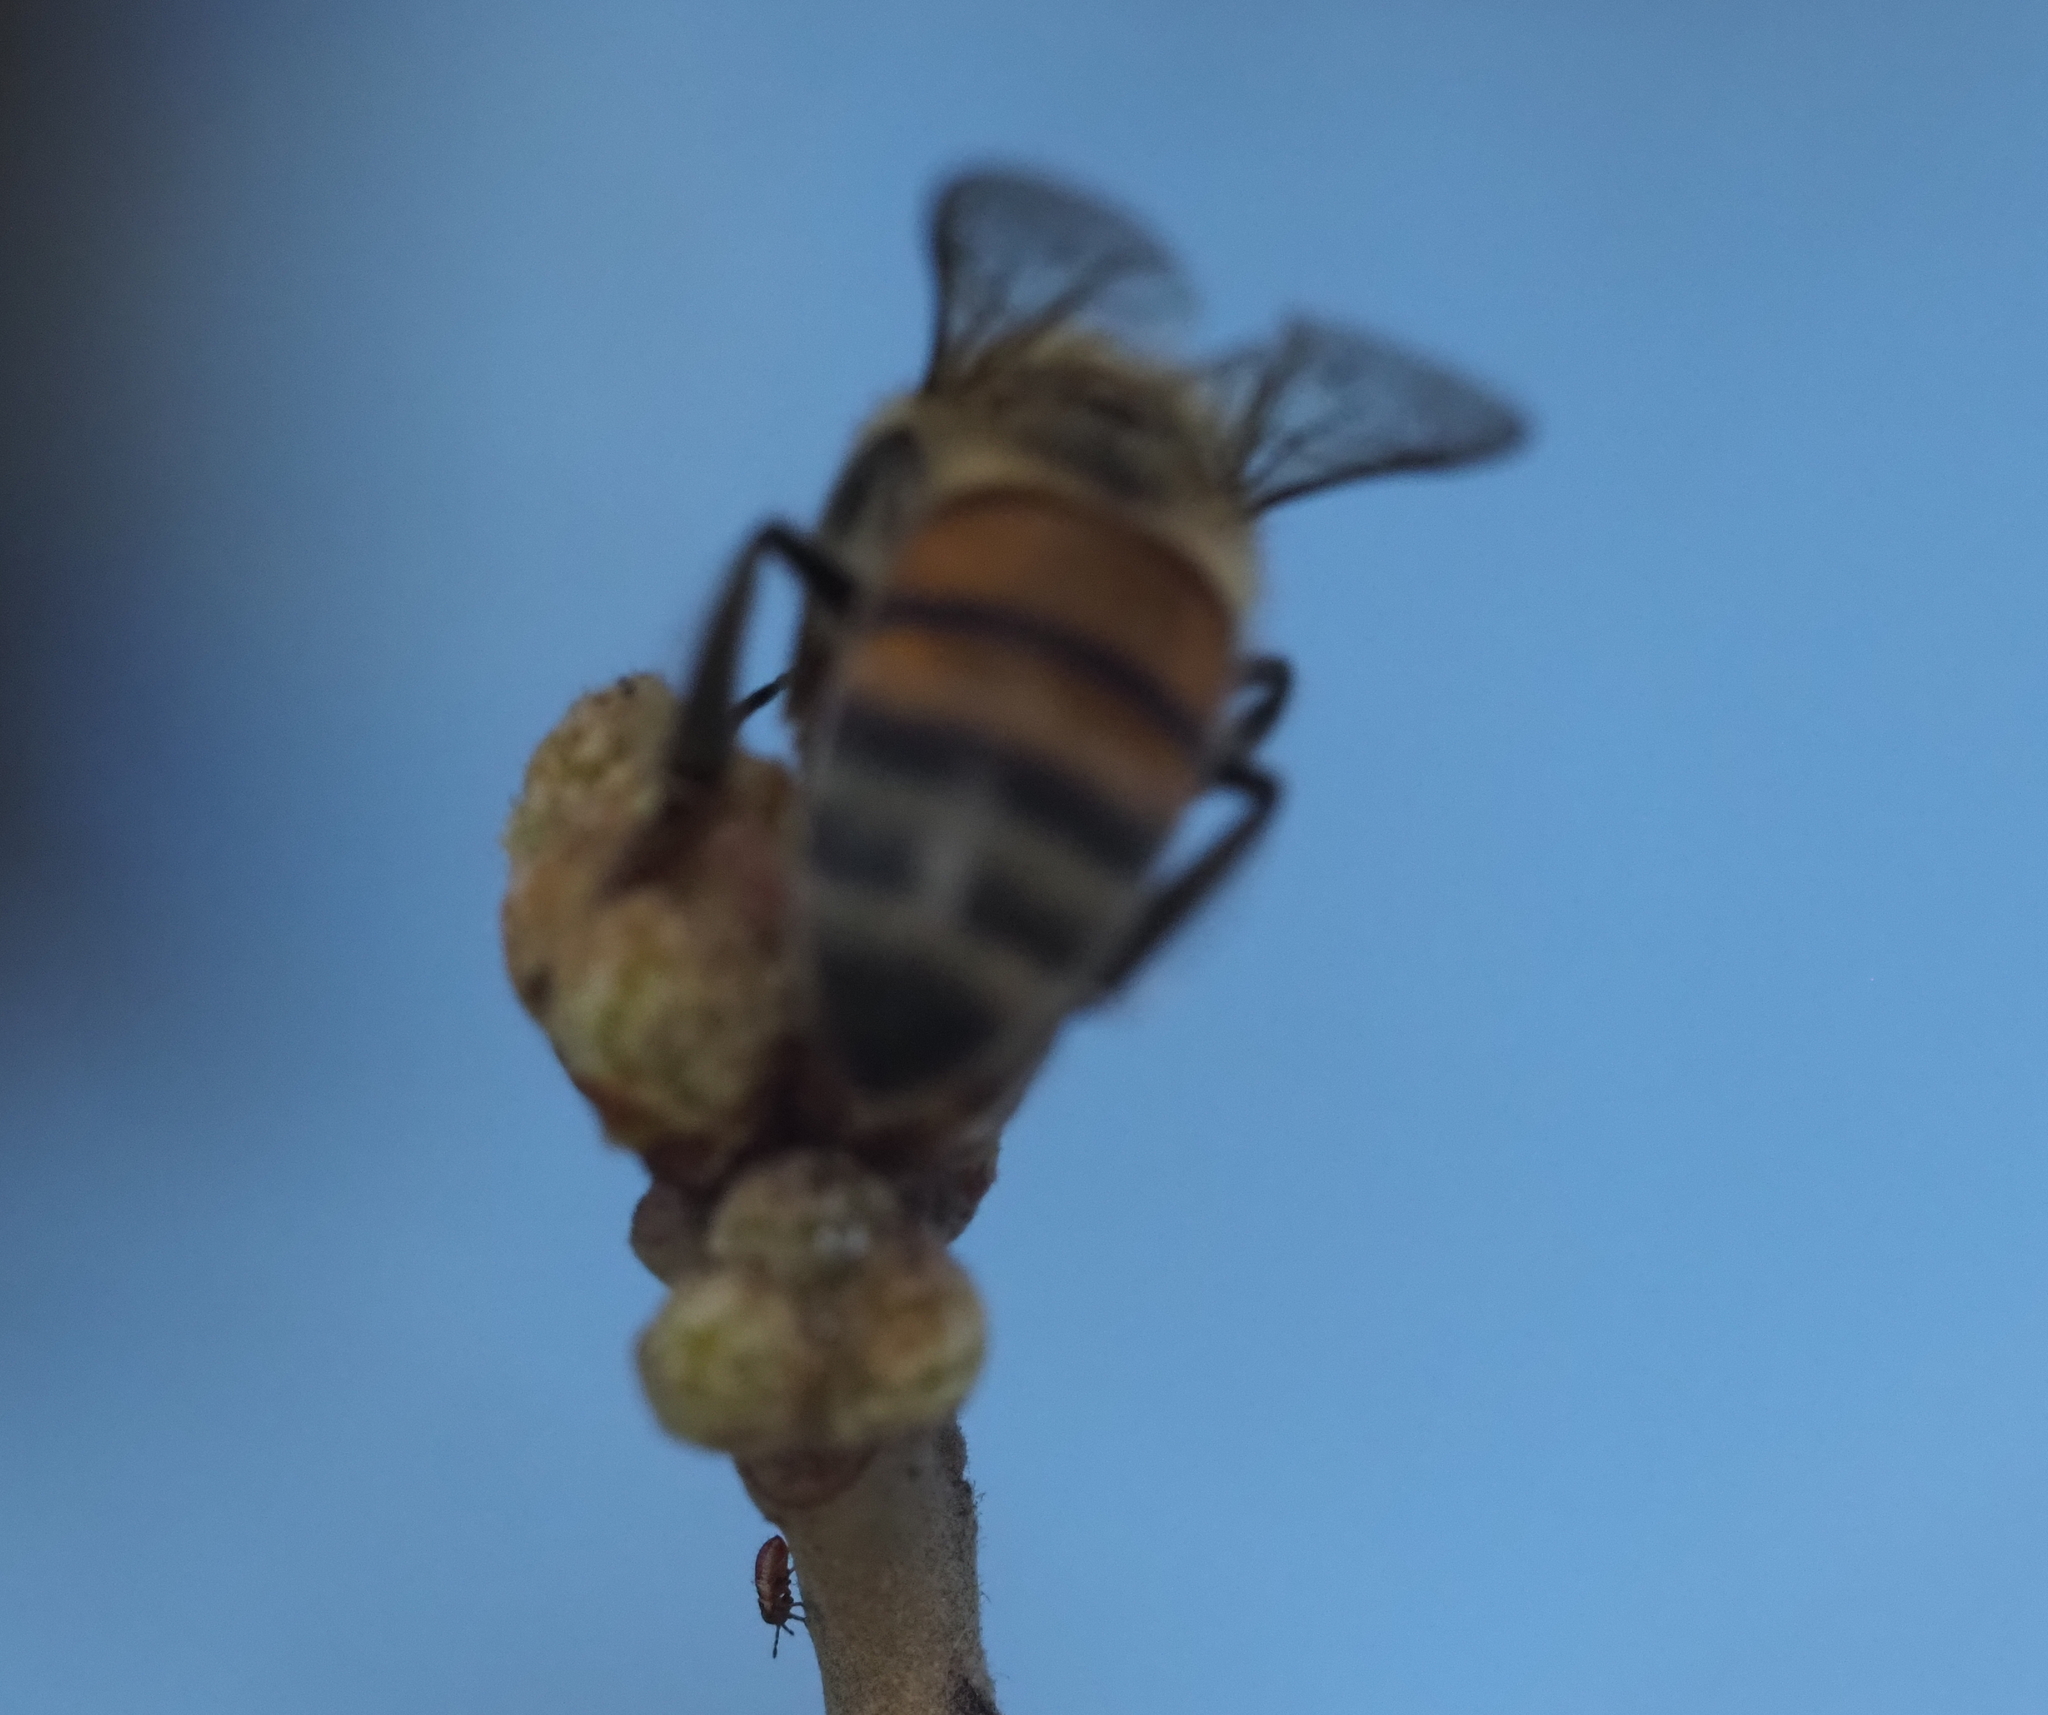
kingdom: Animalia
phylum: Arthropoda
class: Insecta
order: Hymenoptera
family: Apidae
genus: Apis
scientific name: Apis mellifera
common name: Honey bee
